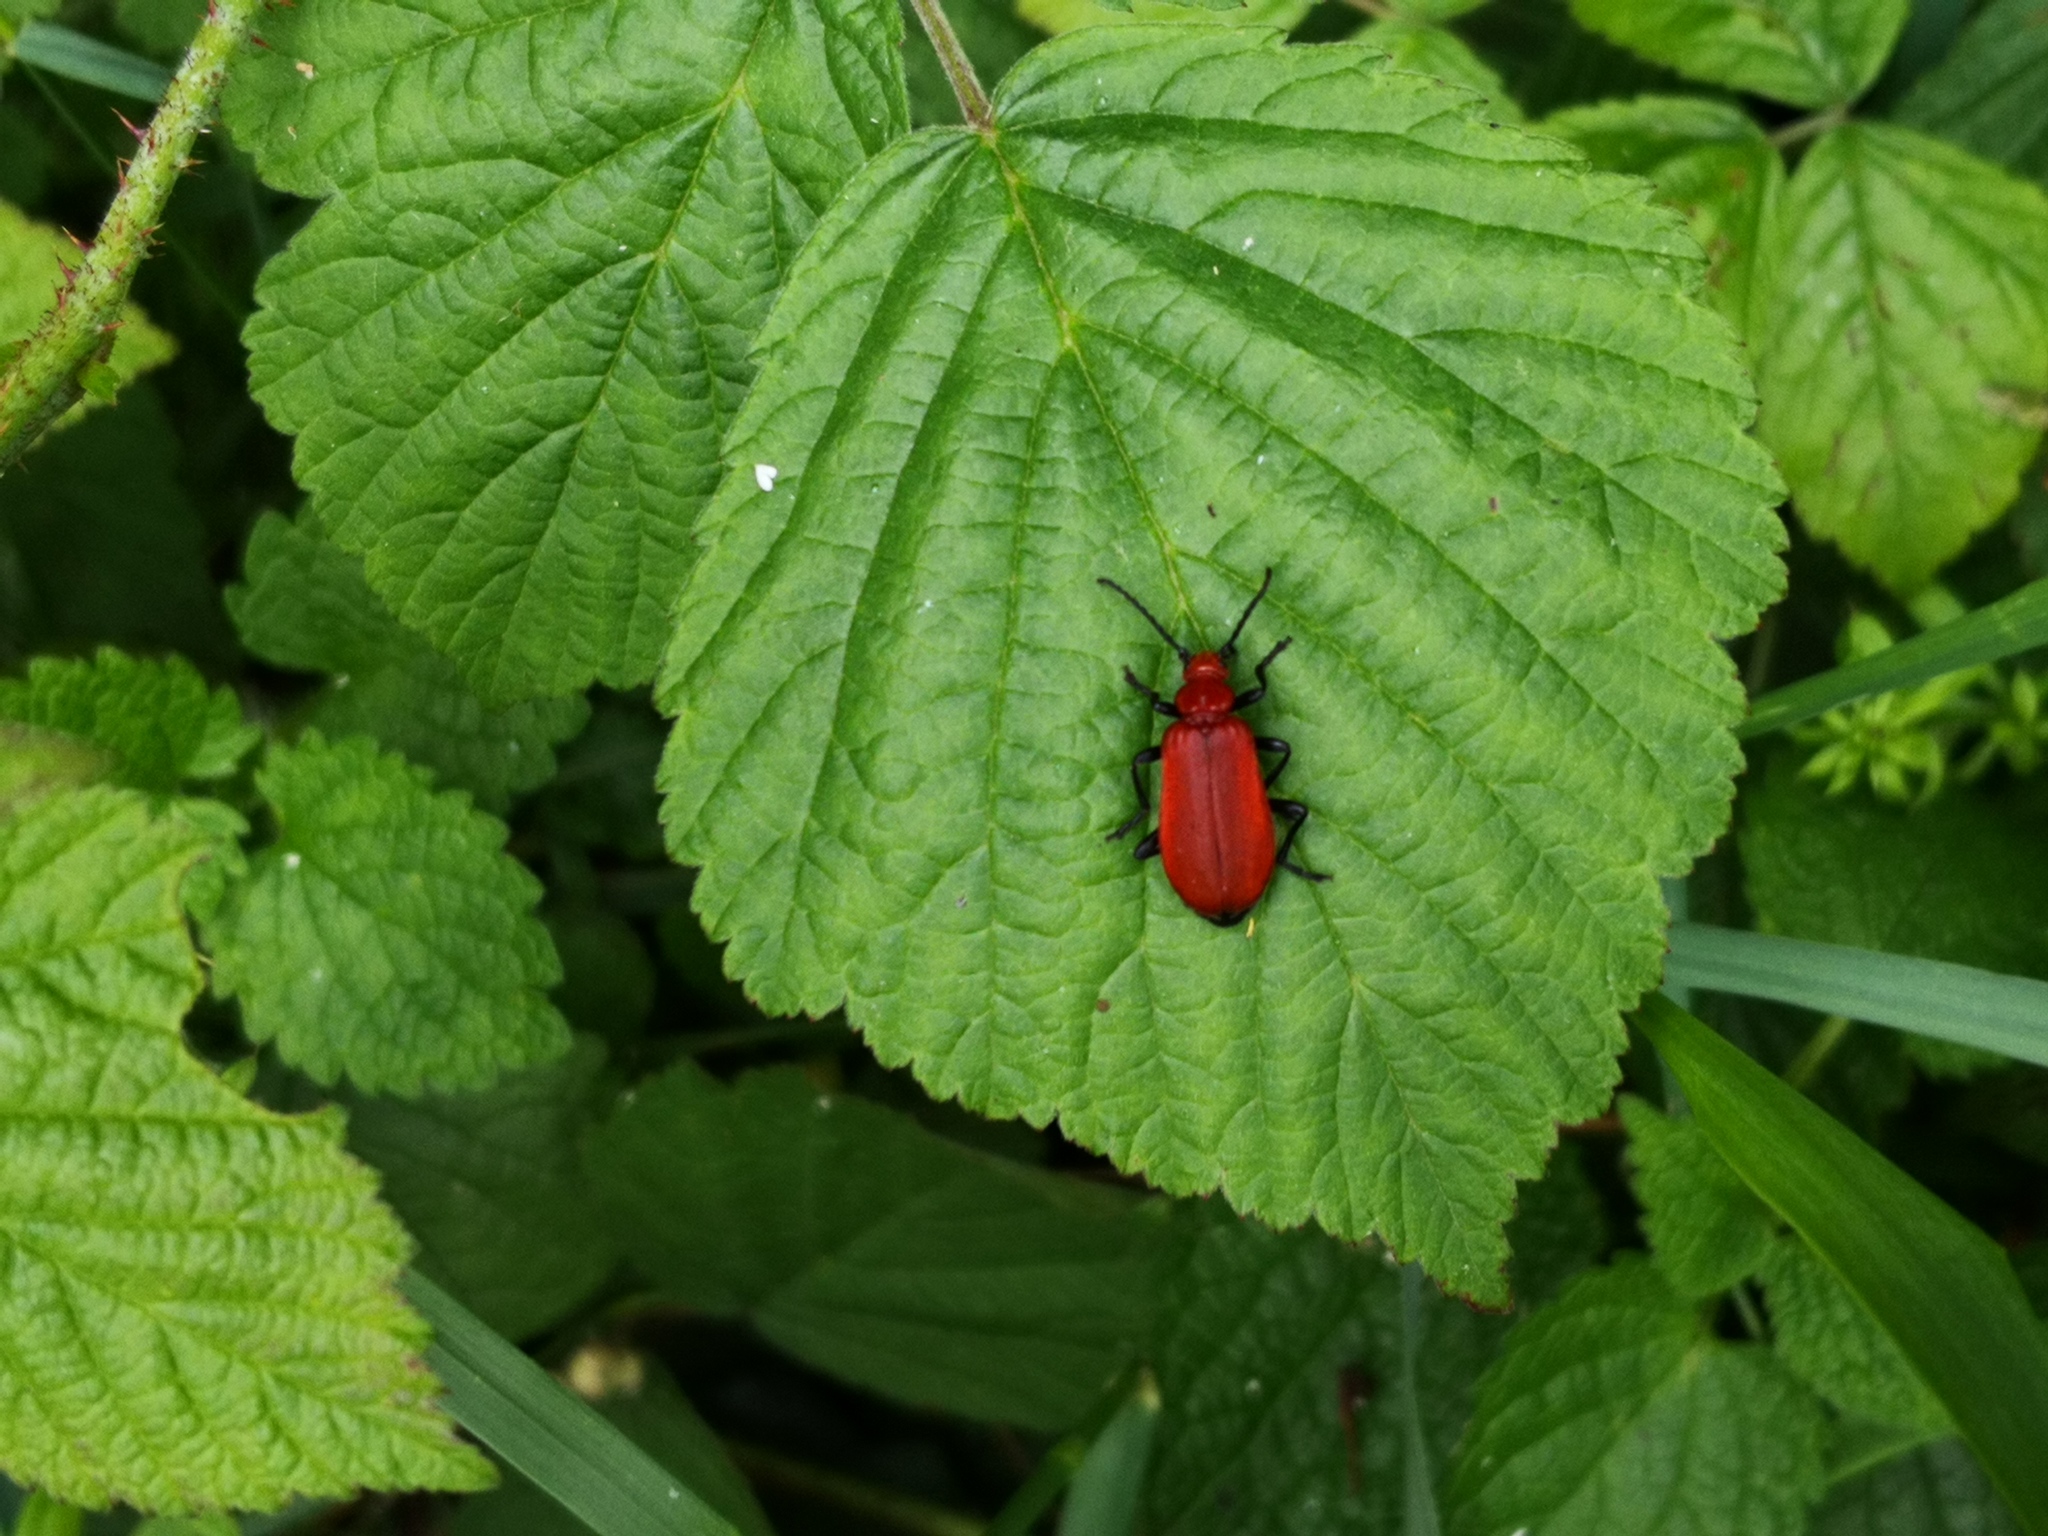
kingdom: Animalia
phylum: Arthropoda
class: Insecta
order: Coleoptera
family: Pyrochroidae
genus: Pyrochroa
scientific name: Pyrochroa serraticornis
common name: Red-headed cardinal beetle
